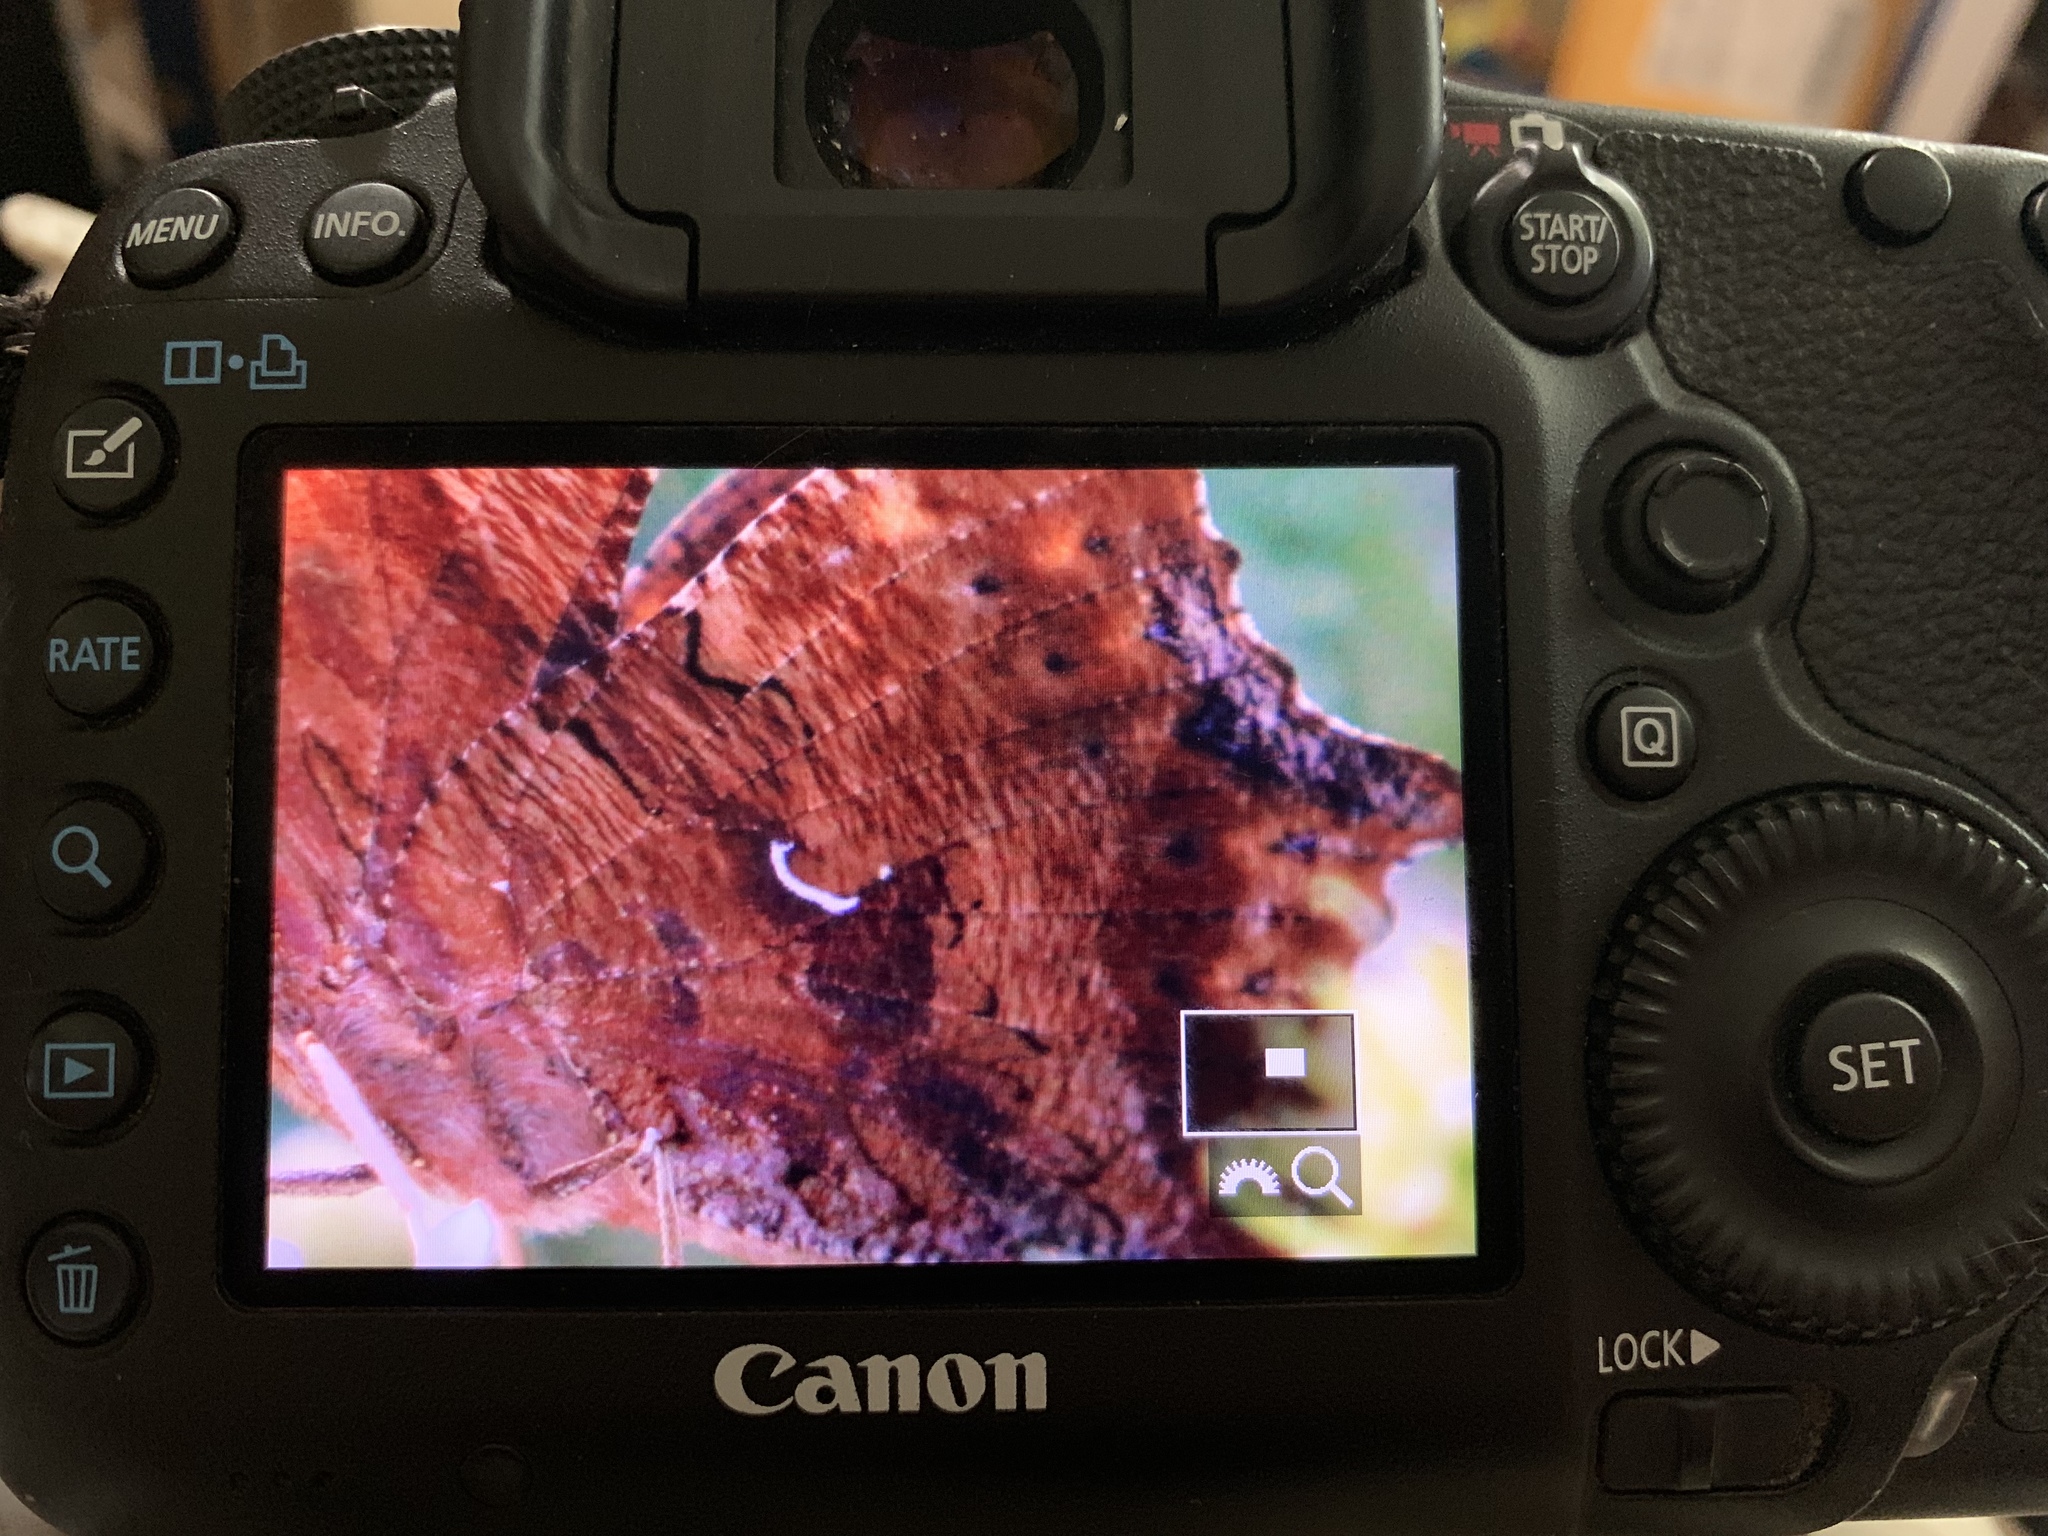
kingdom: Animalia
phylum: Arthropoda
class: Insecta
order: Lepidoptera
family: Nymphalidae
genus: Polygonia
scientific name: Polygonia interrogationis
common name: Question mark
